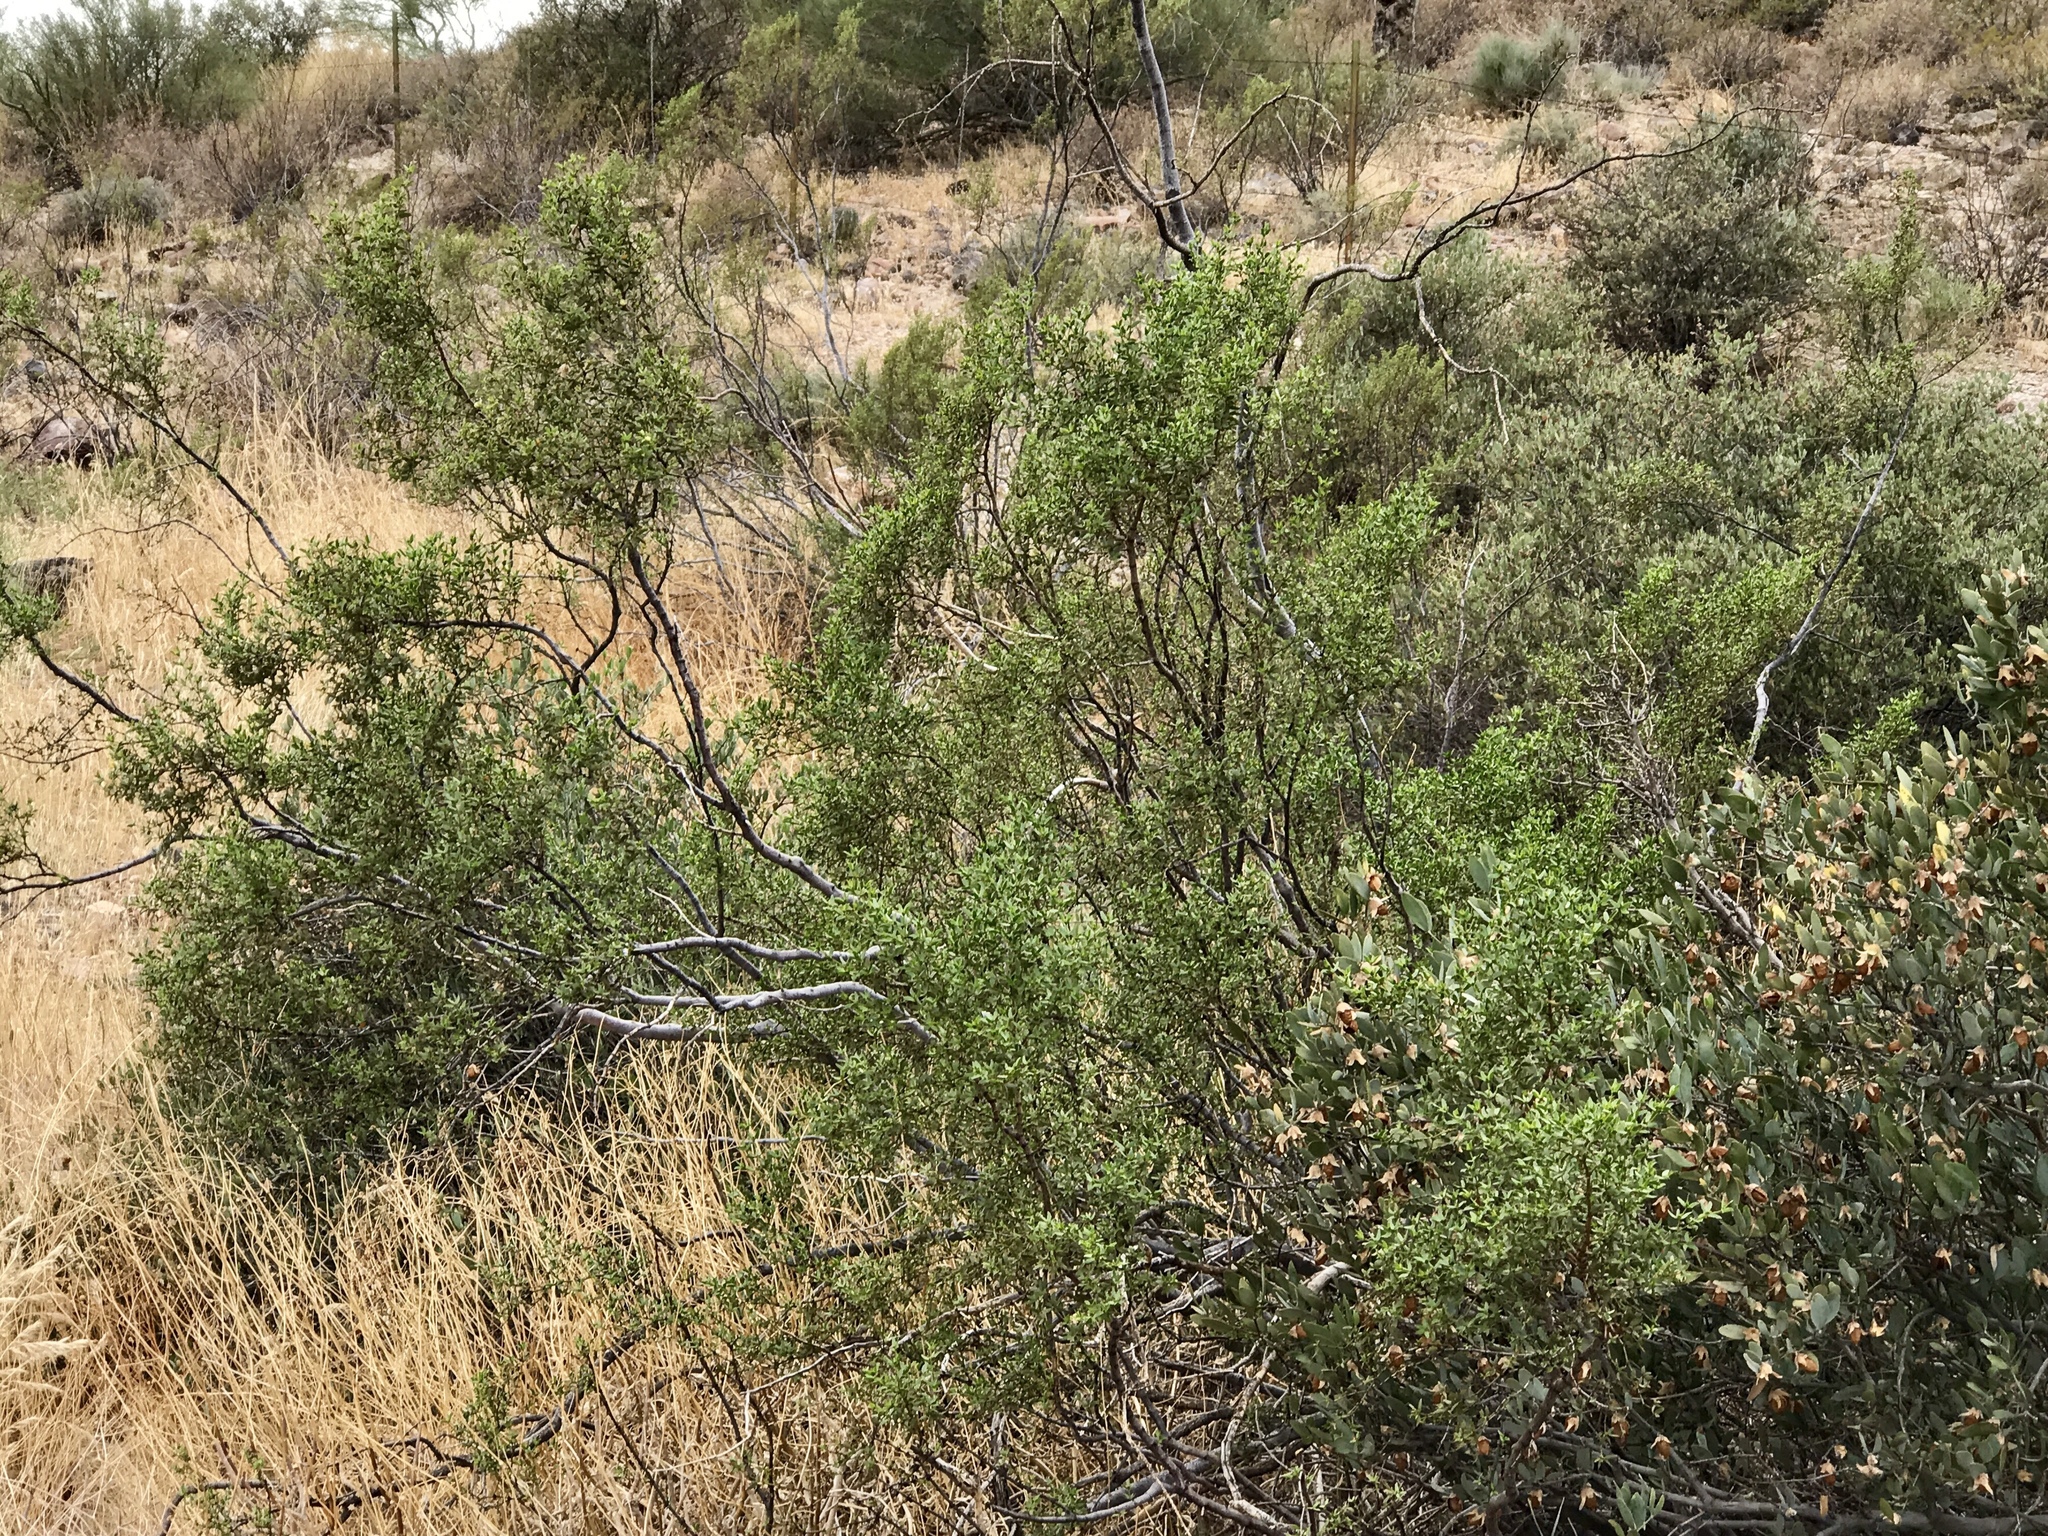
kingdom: Plantae
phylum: Tracheophyta
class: Magnoliopsida
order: Zygophyllales
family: Zygophyllaceae
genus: Larrea
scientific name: Larrea tridentata
